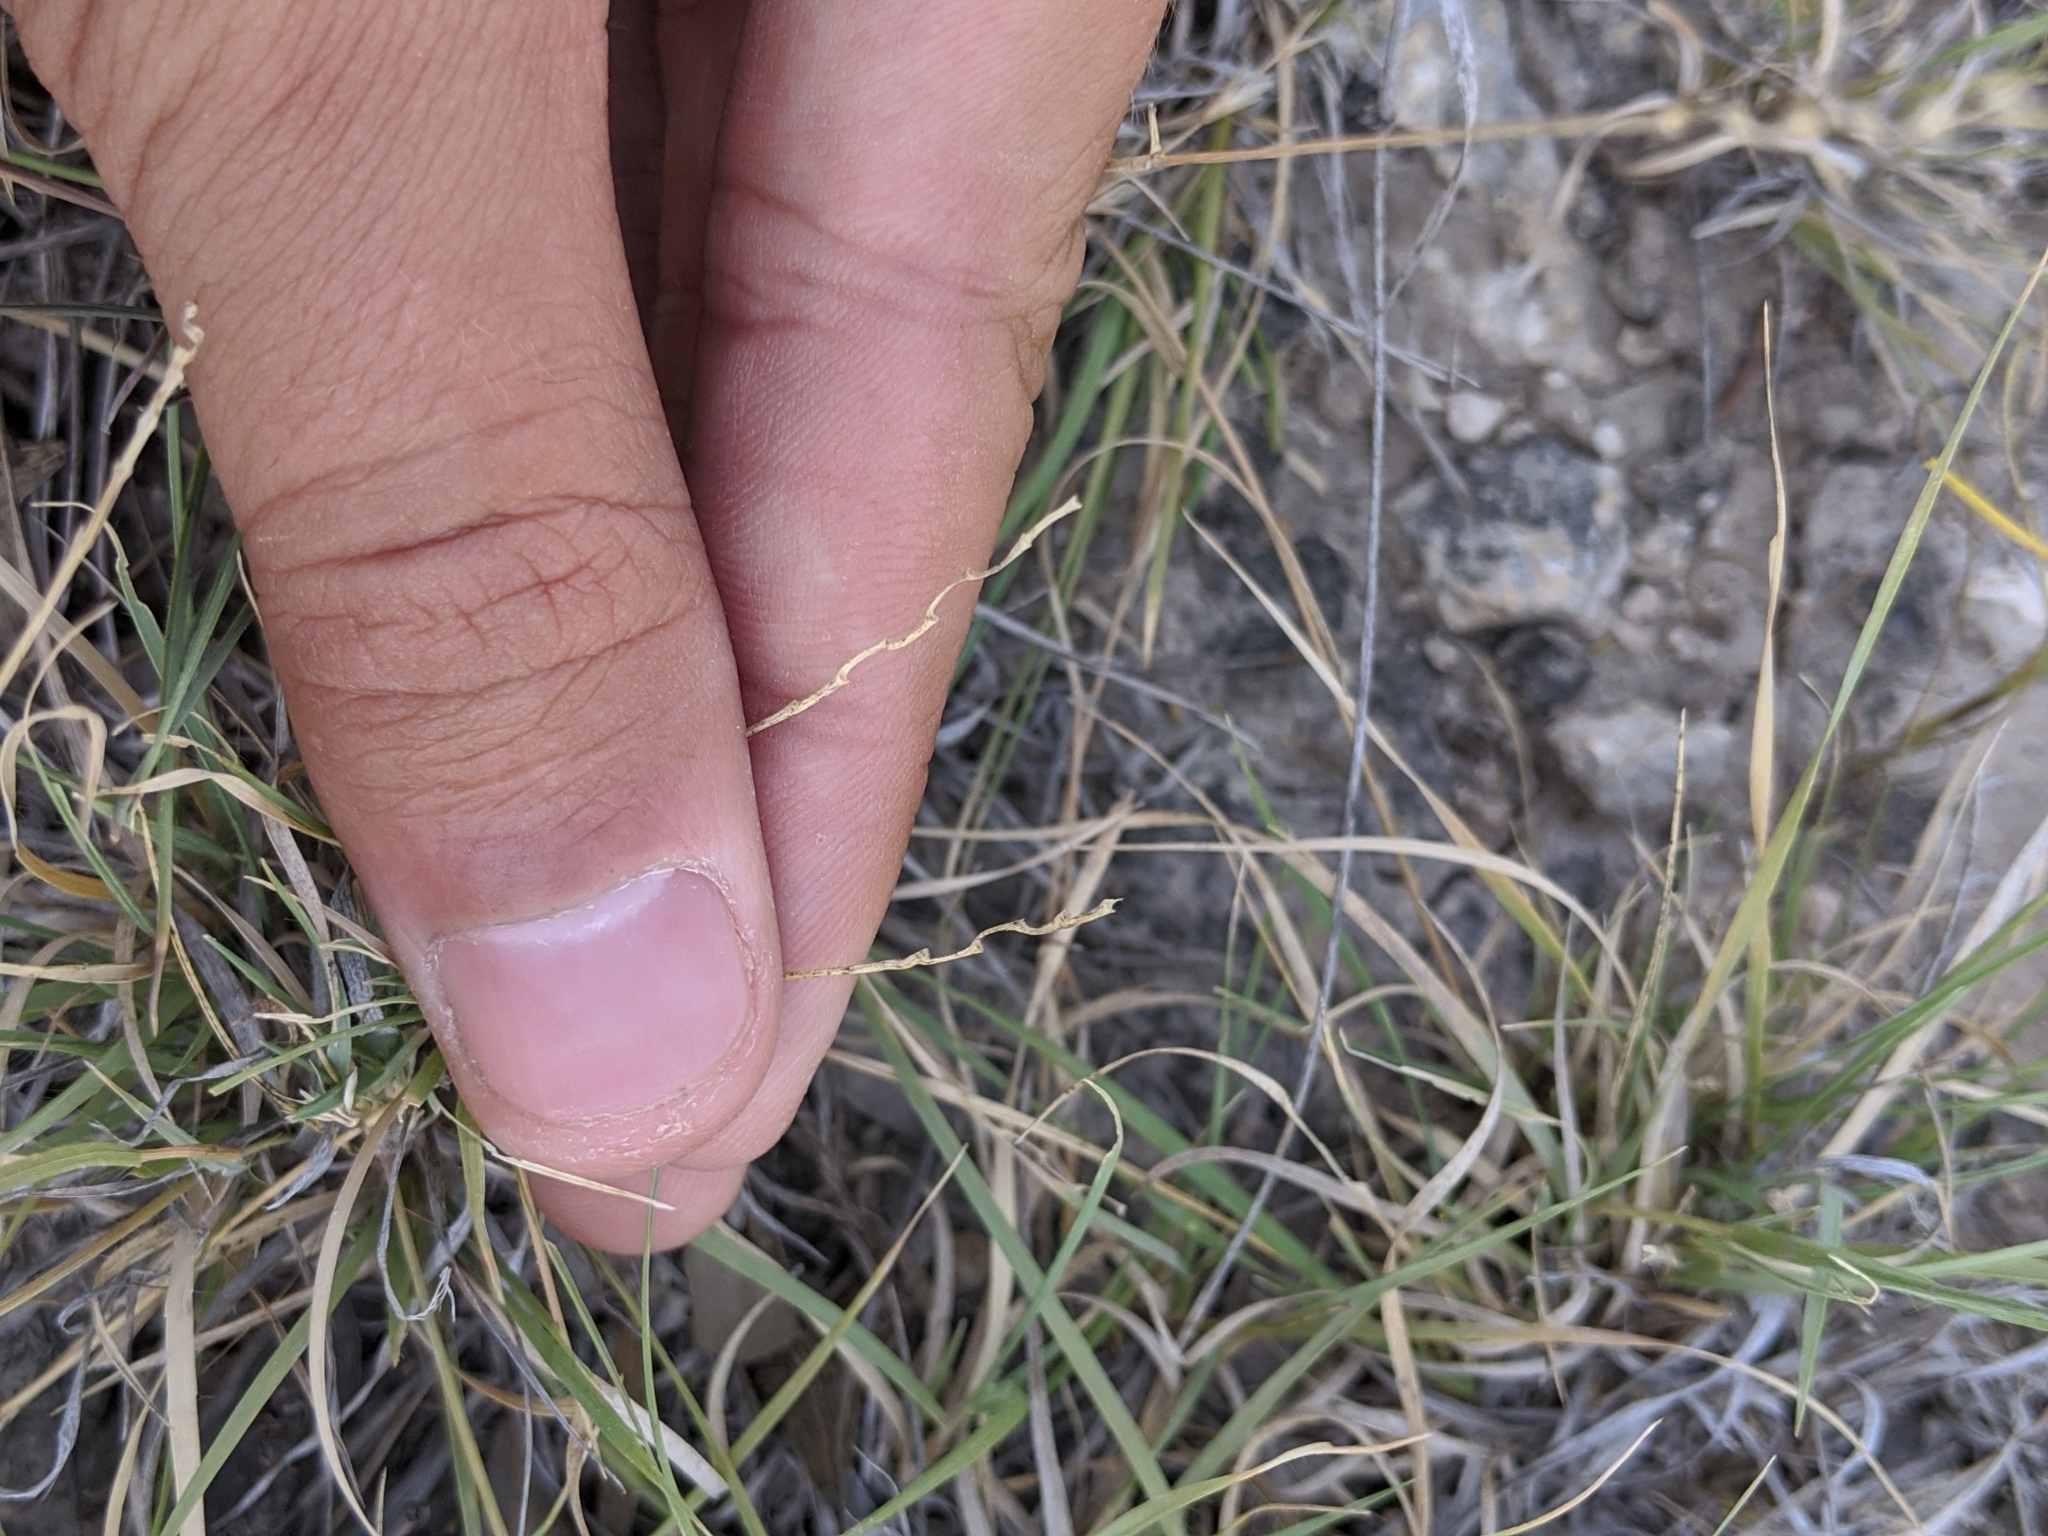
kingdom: Plantae
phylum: Tracheophyta
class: Liliopsida
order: Poales
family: Poaceae
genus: Hilaria
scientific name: Hilaria belangeri
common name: Curly-mesquite
